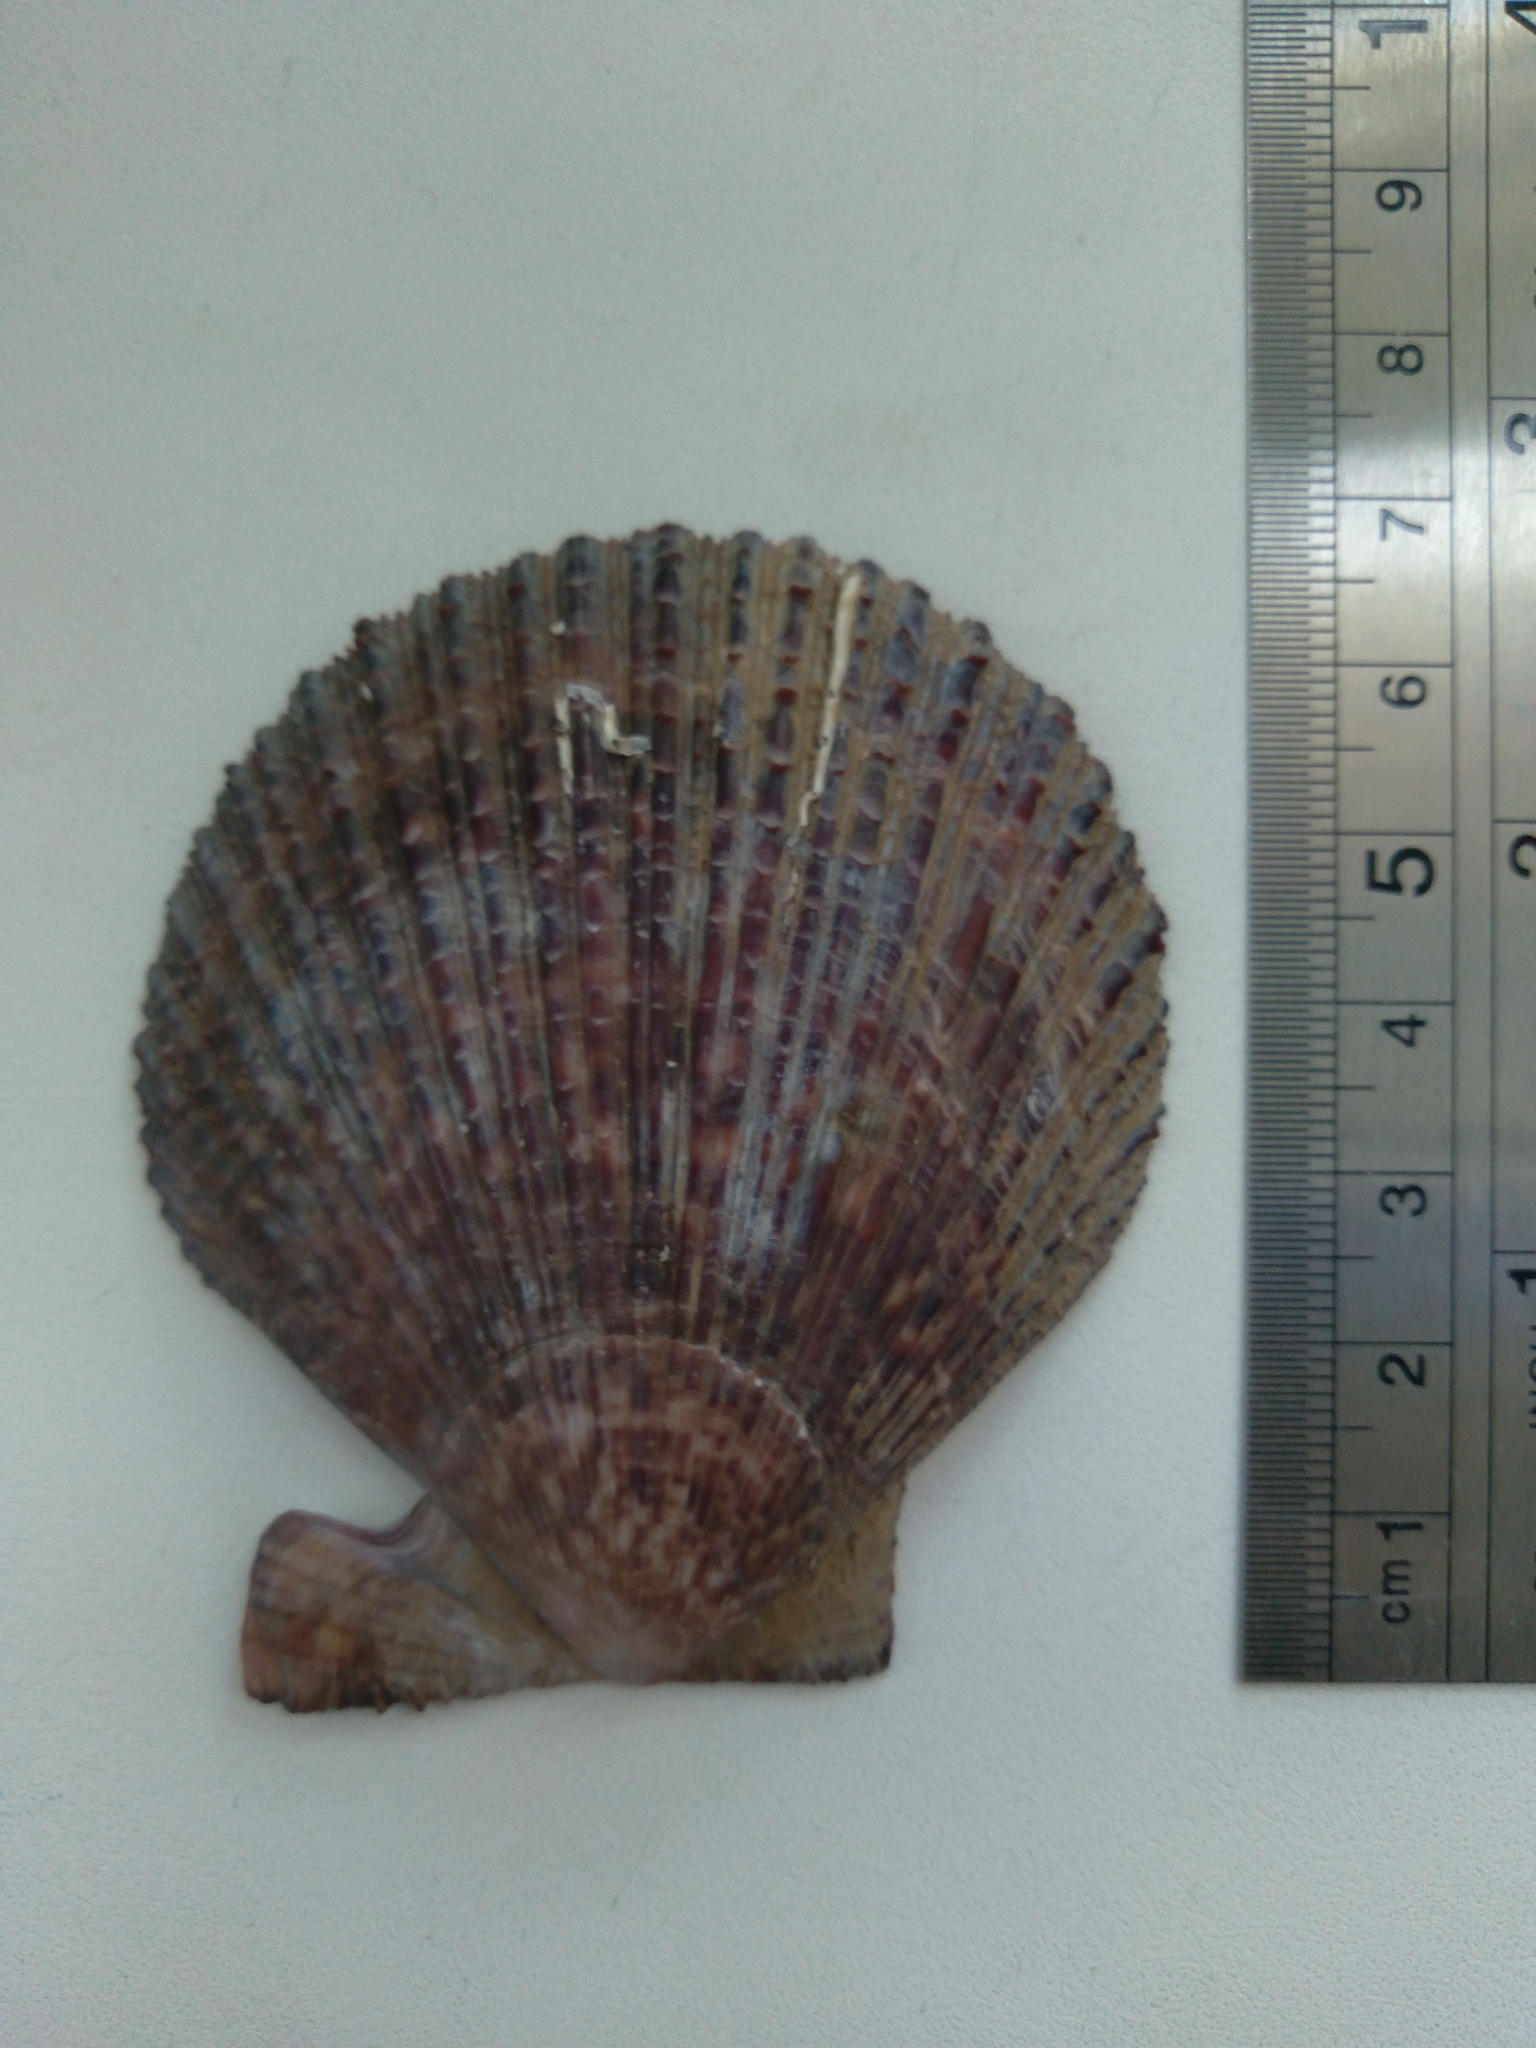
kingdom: Animalia
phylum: Mollusca
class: Bivalvia
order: Pectinida
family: Pectinidae
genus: Chlamys
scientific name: Chlamys farreri
